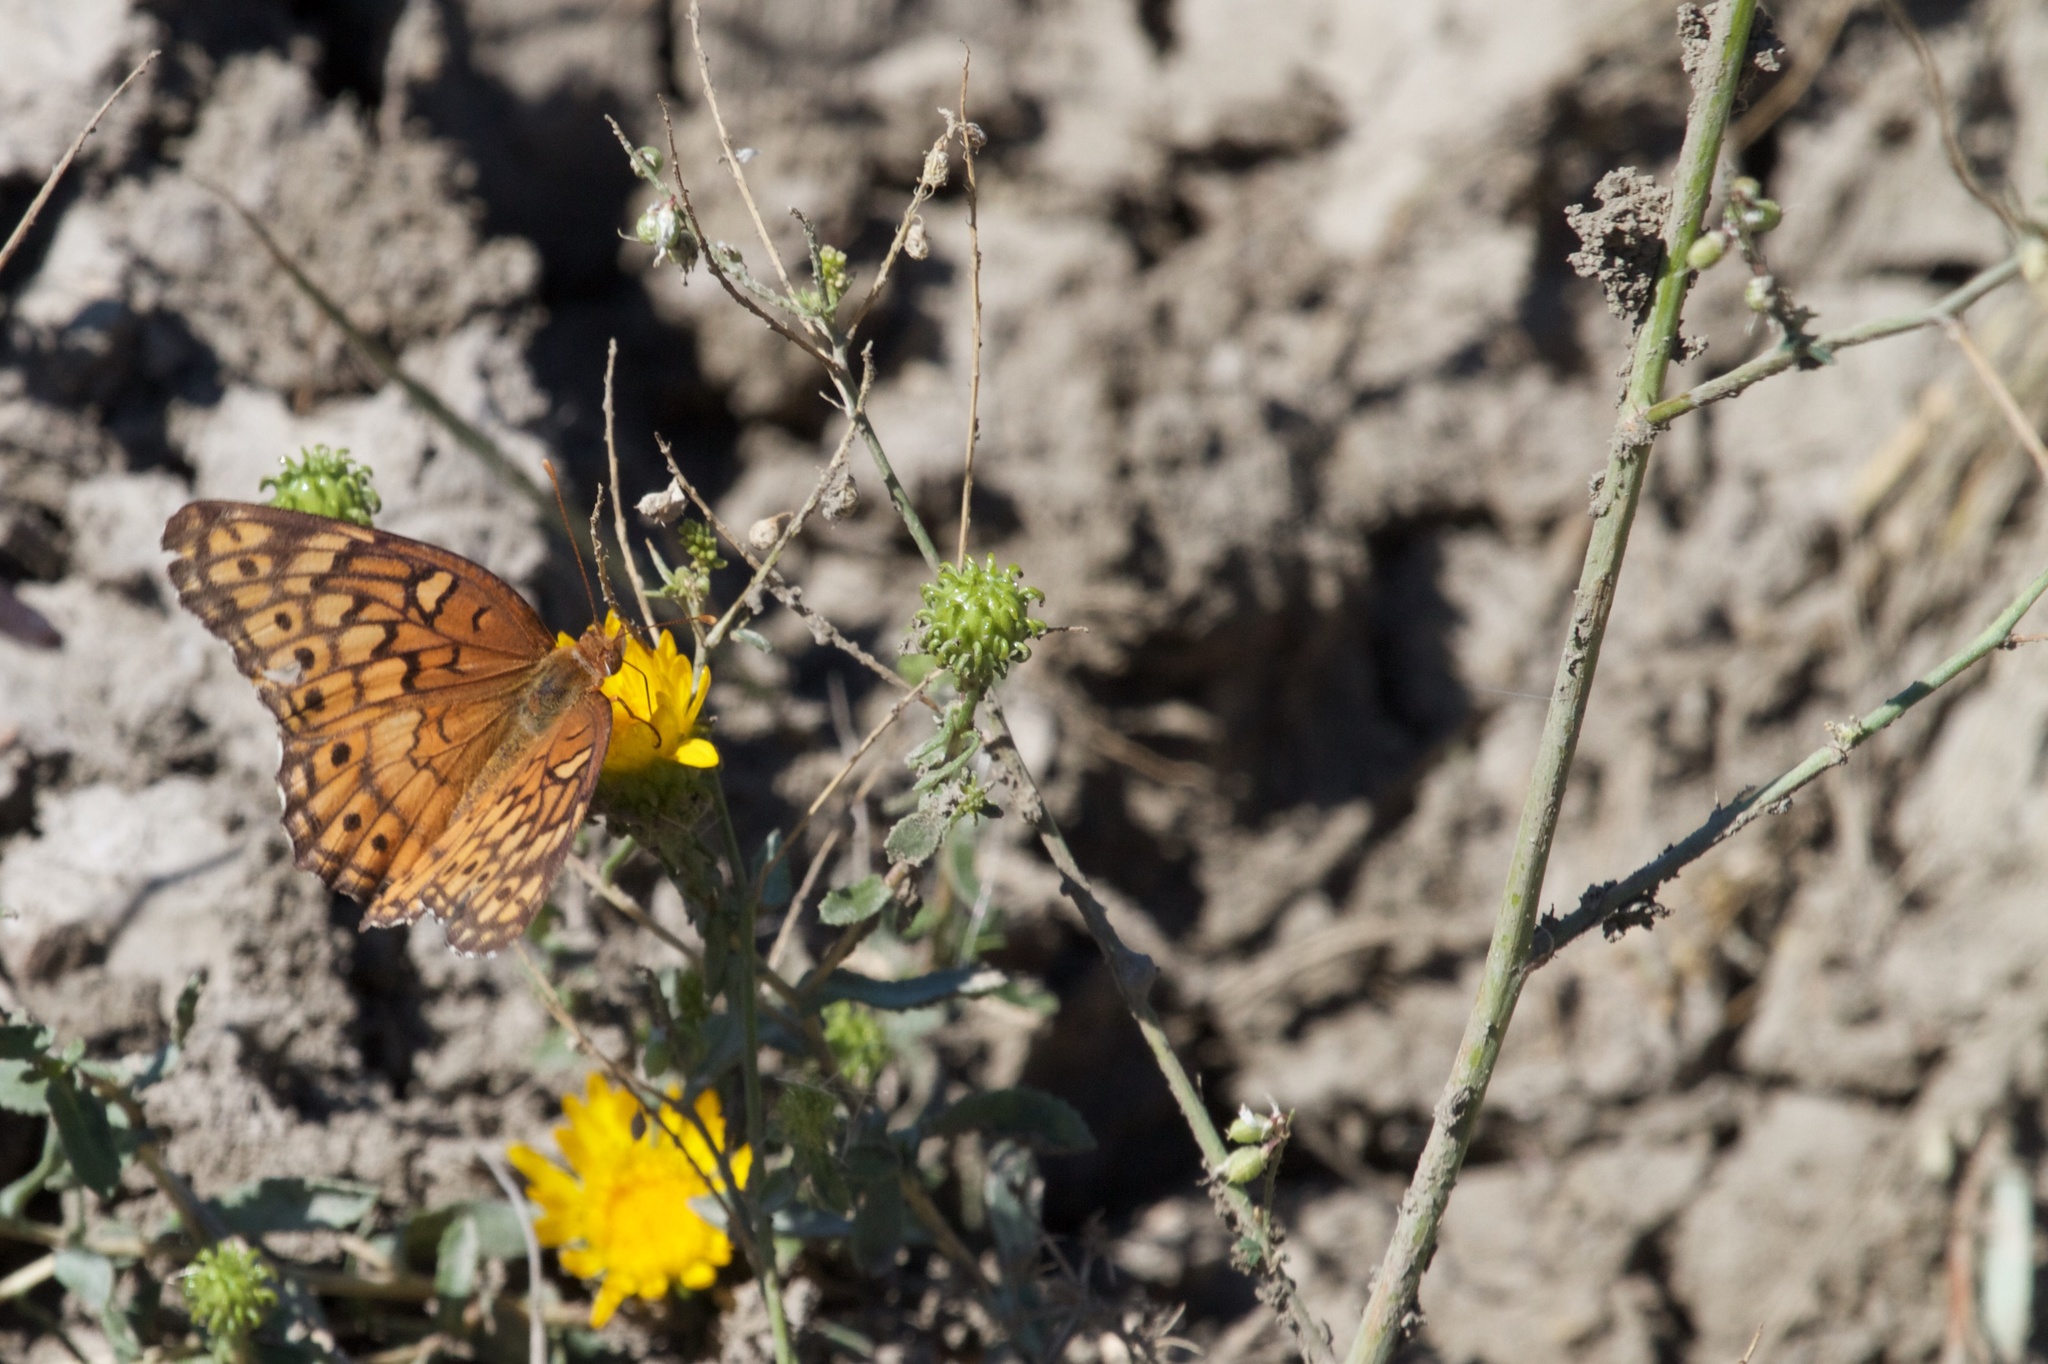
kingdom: Animalia
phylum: Arthropoda
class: Insecta
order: Lepidoptera
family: Nymphalidae
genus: Euptoieta
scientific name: Euptoieta claudia
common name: Variegated fritillary
